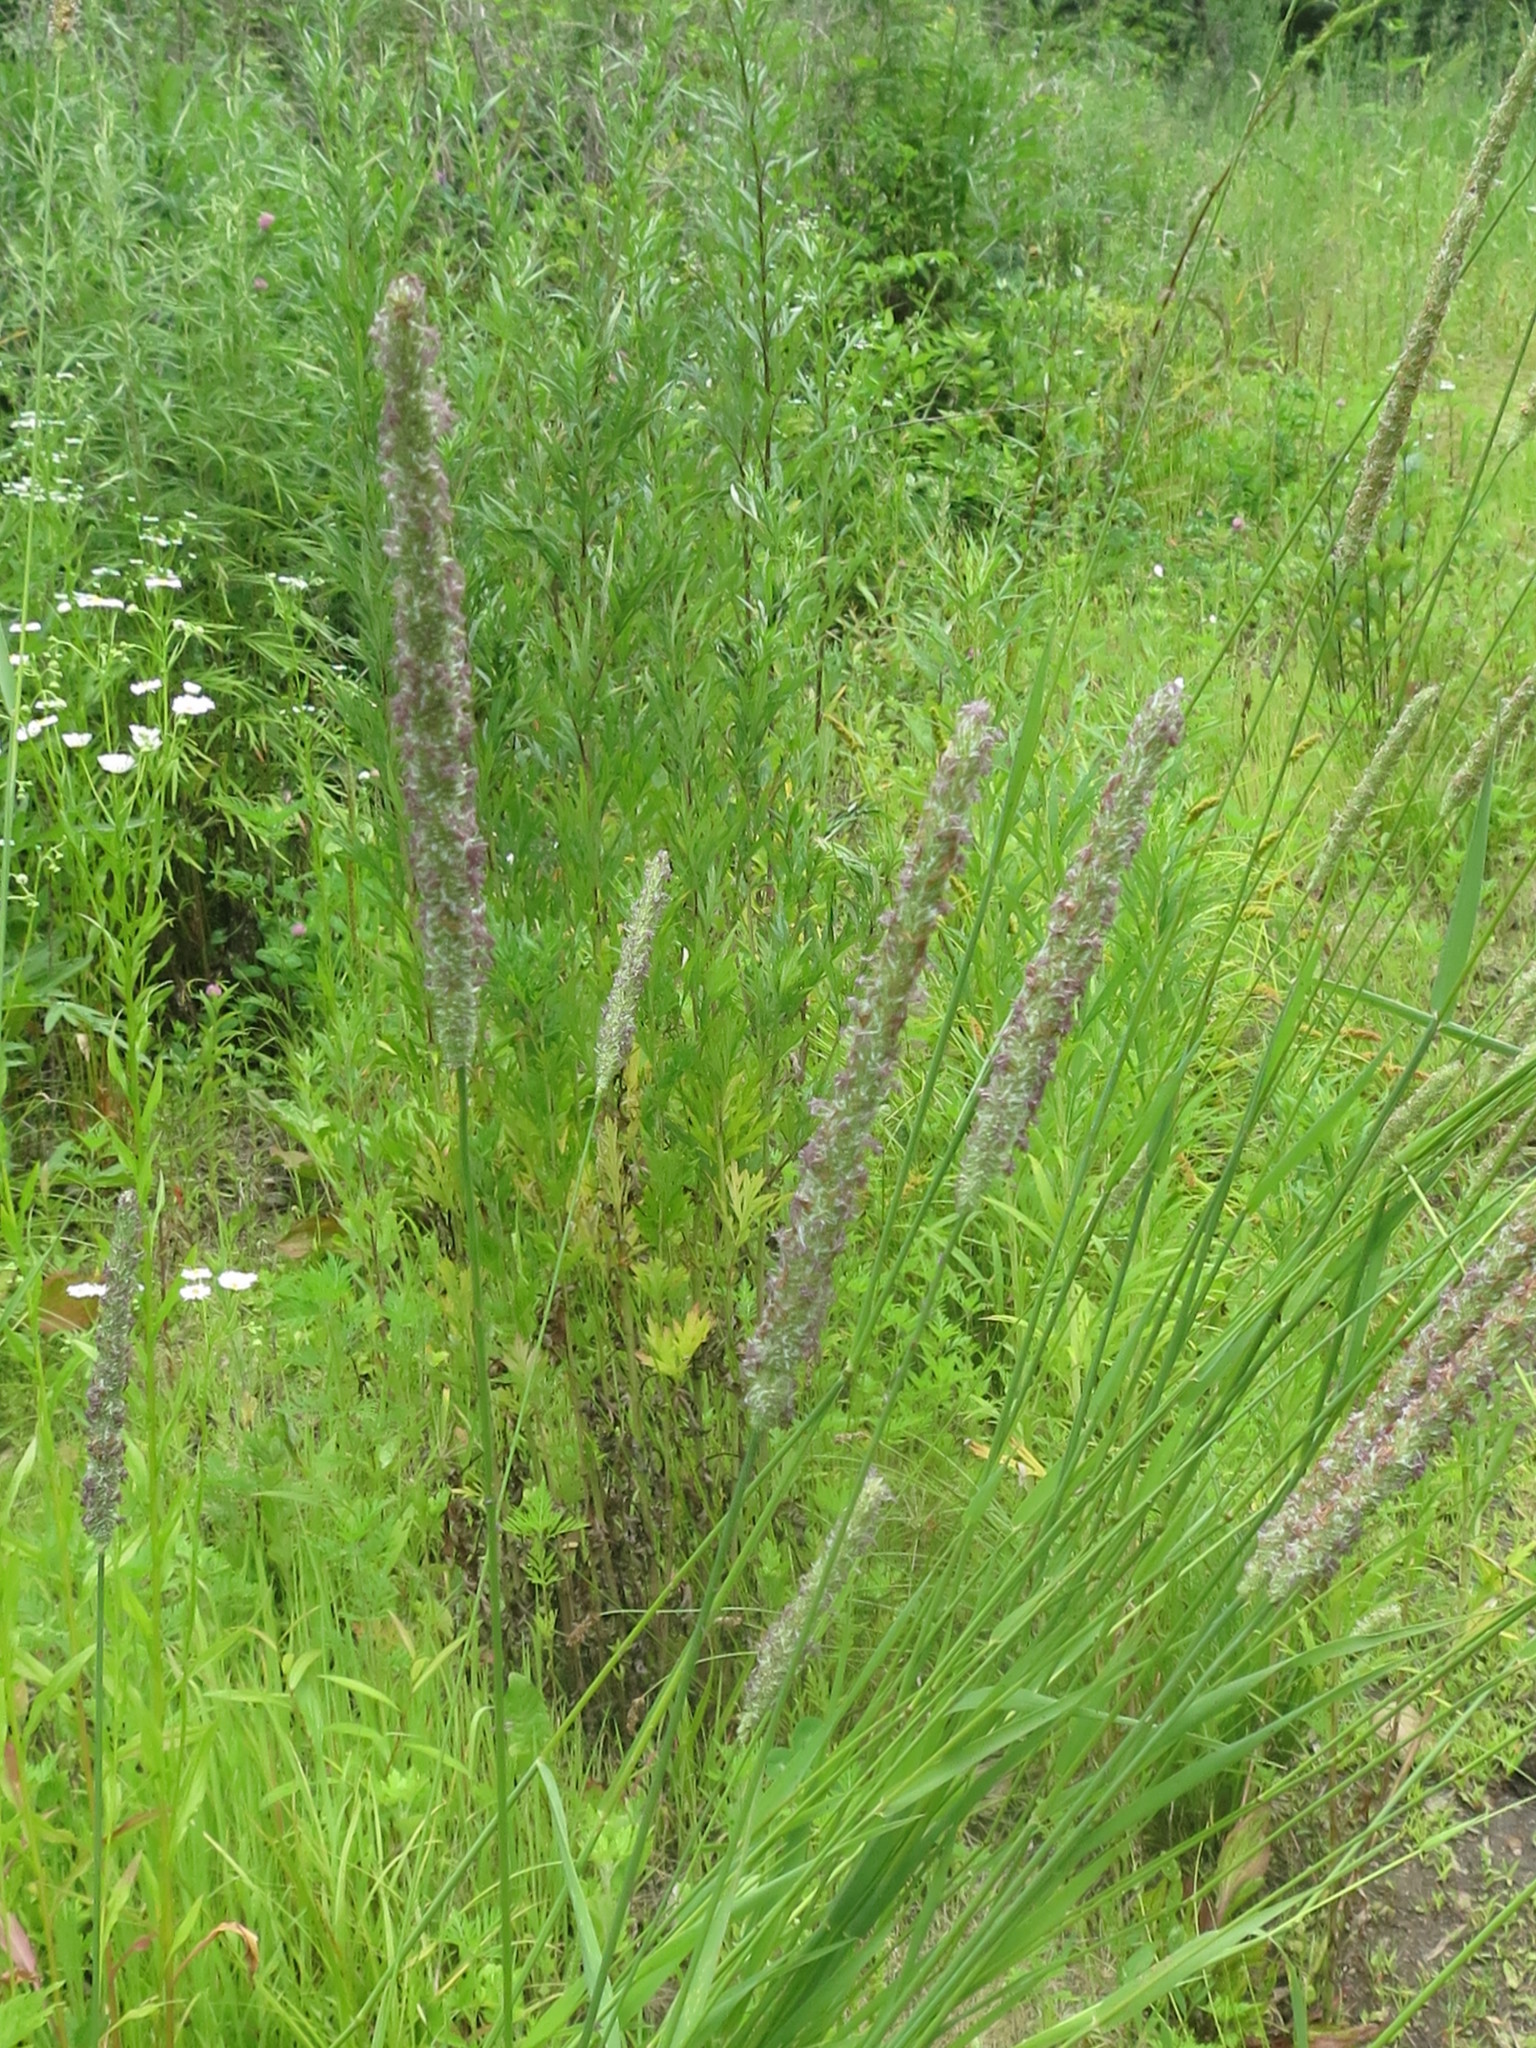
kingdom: Plantae
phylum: Tracheophyta
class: Liliopsida
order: Poales
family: Poaceae
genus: Phleum
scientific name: Phleum pratense
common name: Timothy grass
